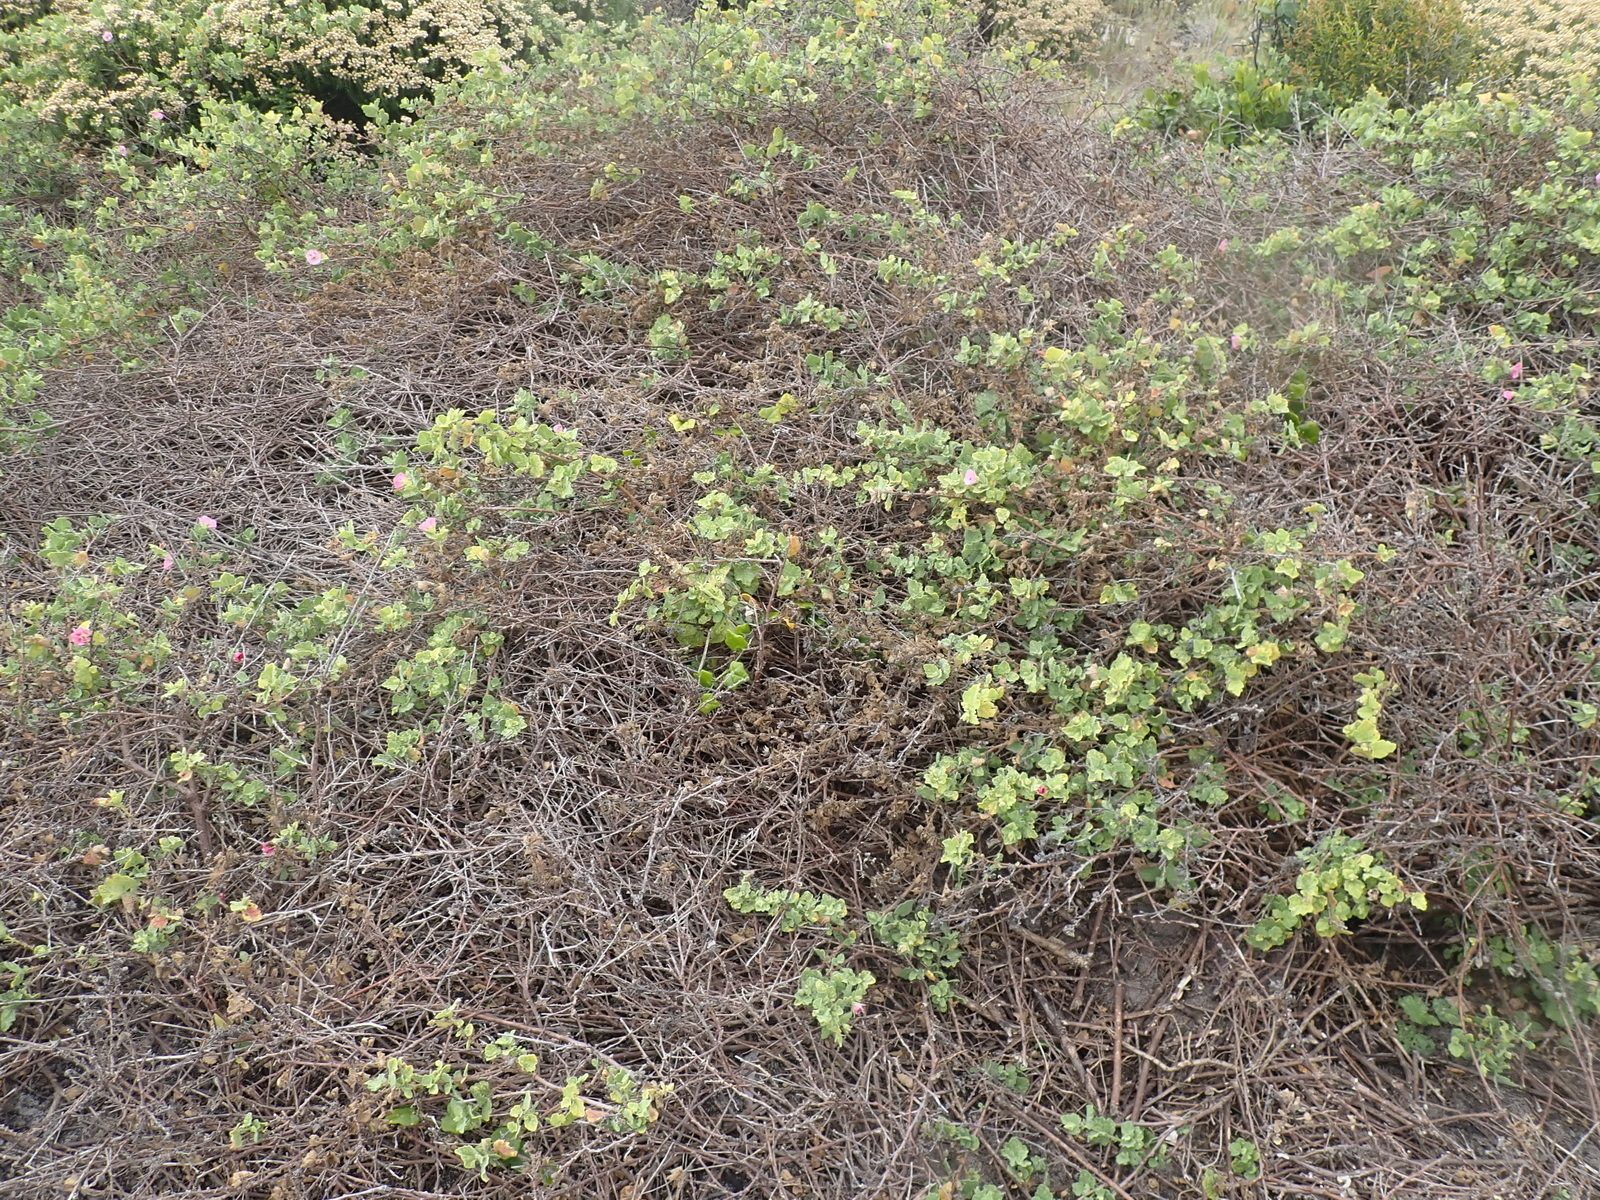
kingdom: Plantae
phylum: Tracheophyta
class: Magnoliopsida
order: Malvales
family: Malvaceae
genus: Anisodontea
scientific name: Anisodontea scabrosa
